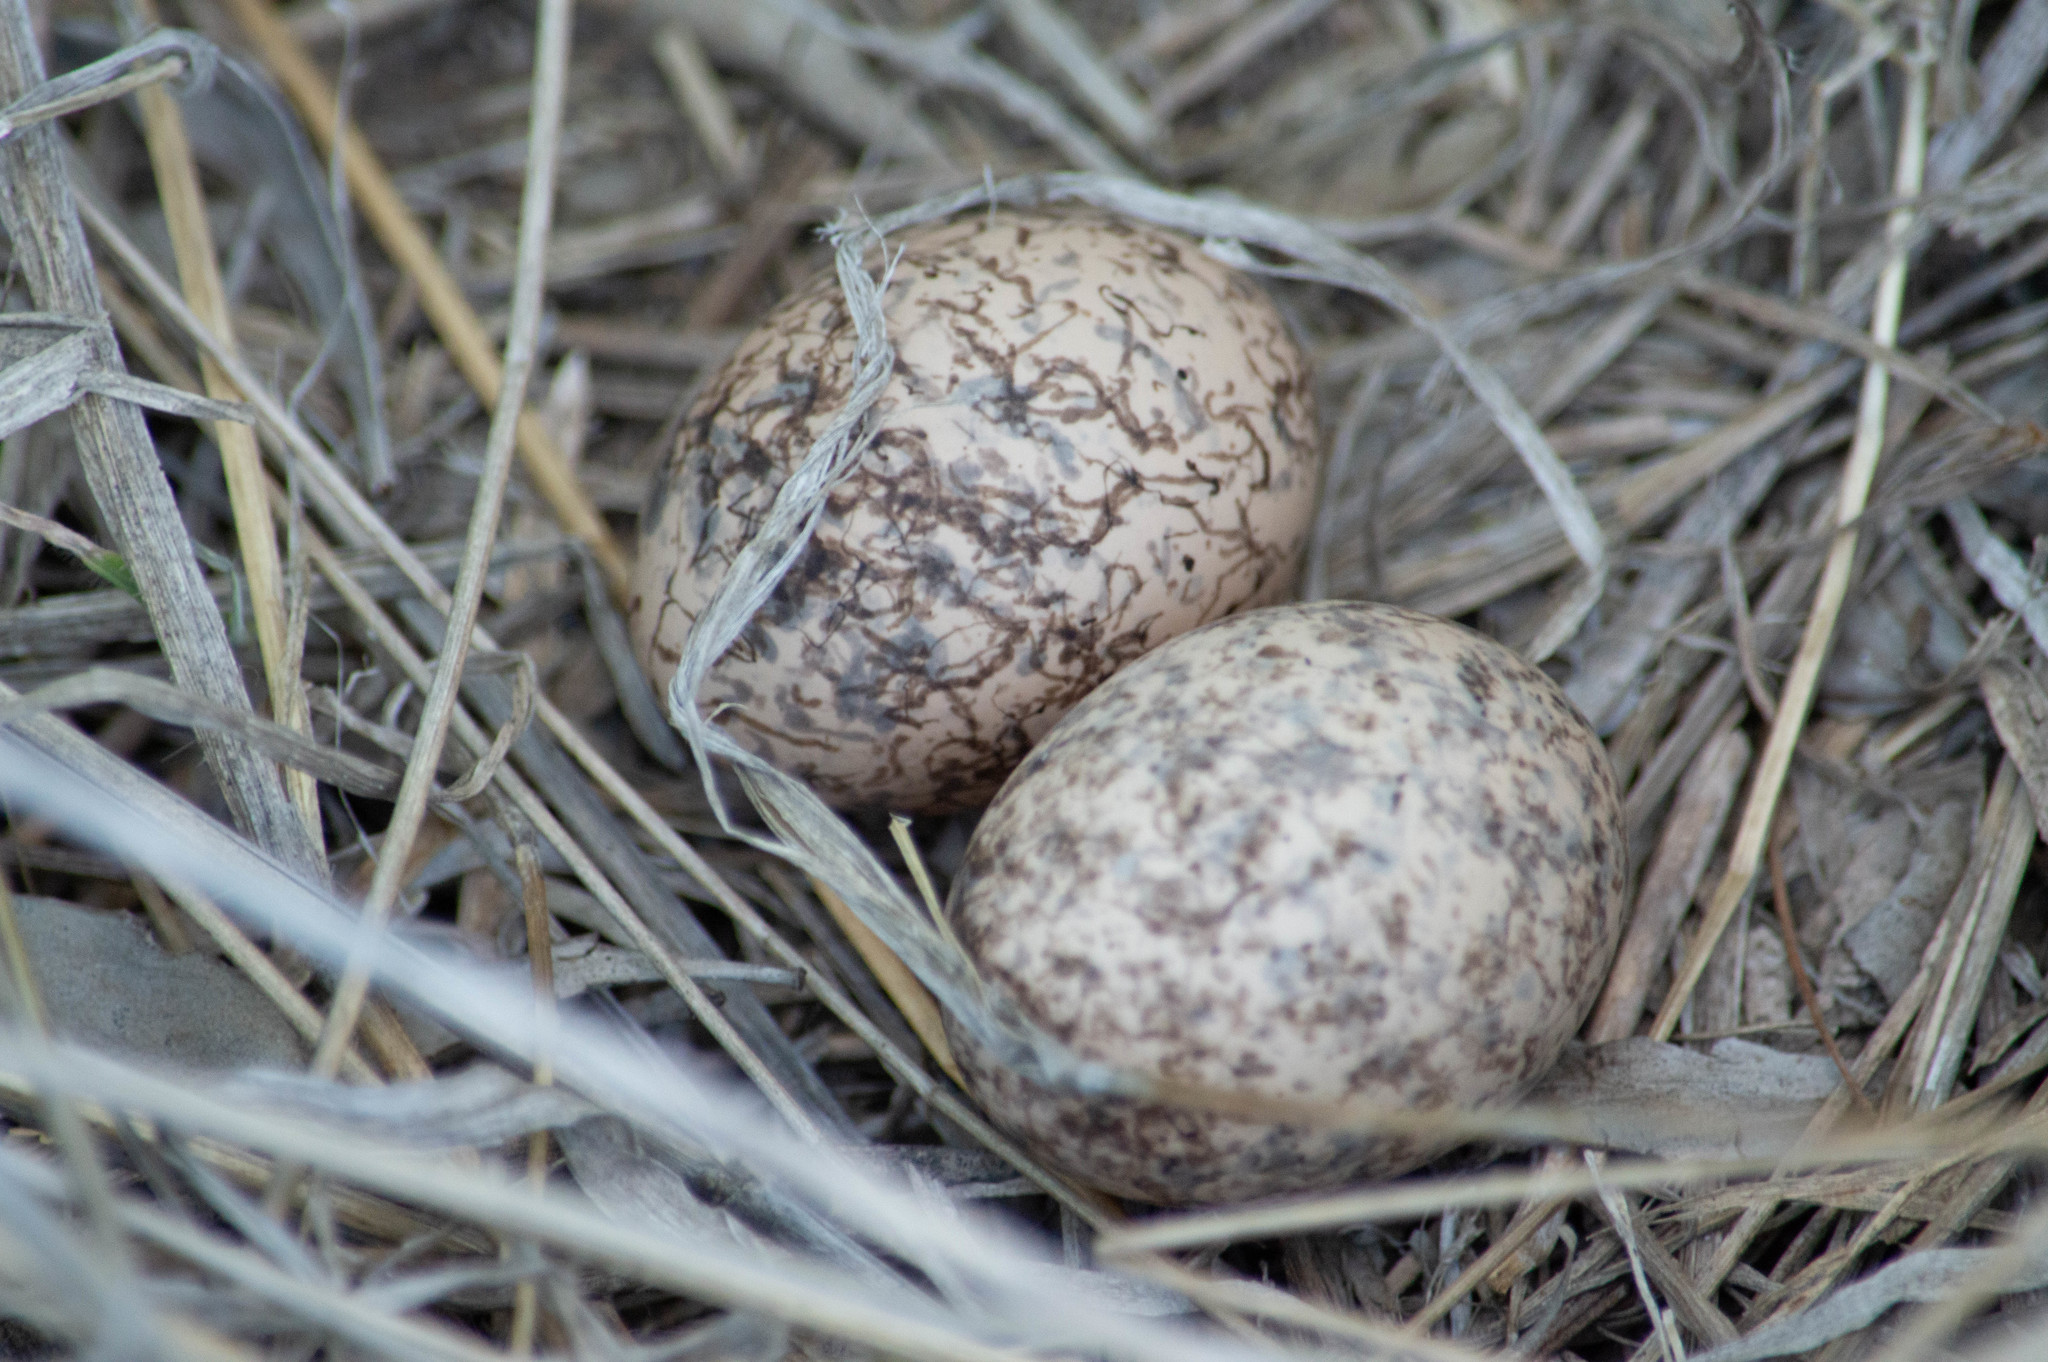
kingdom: Animalia
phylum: Chordata
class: Aves
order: Caprimulgiformes
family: Caprimulgidae
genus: Hydropsalis
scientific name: Hydropsalis torquata
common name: Scissor-tailed nightjar
